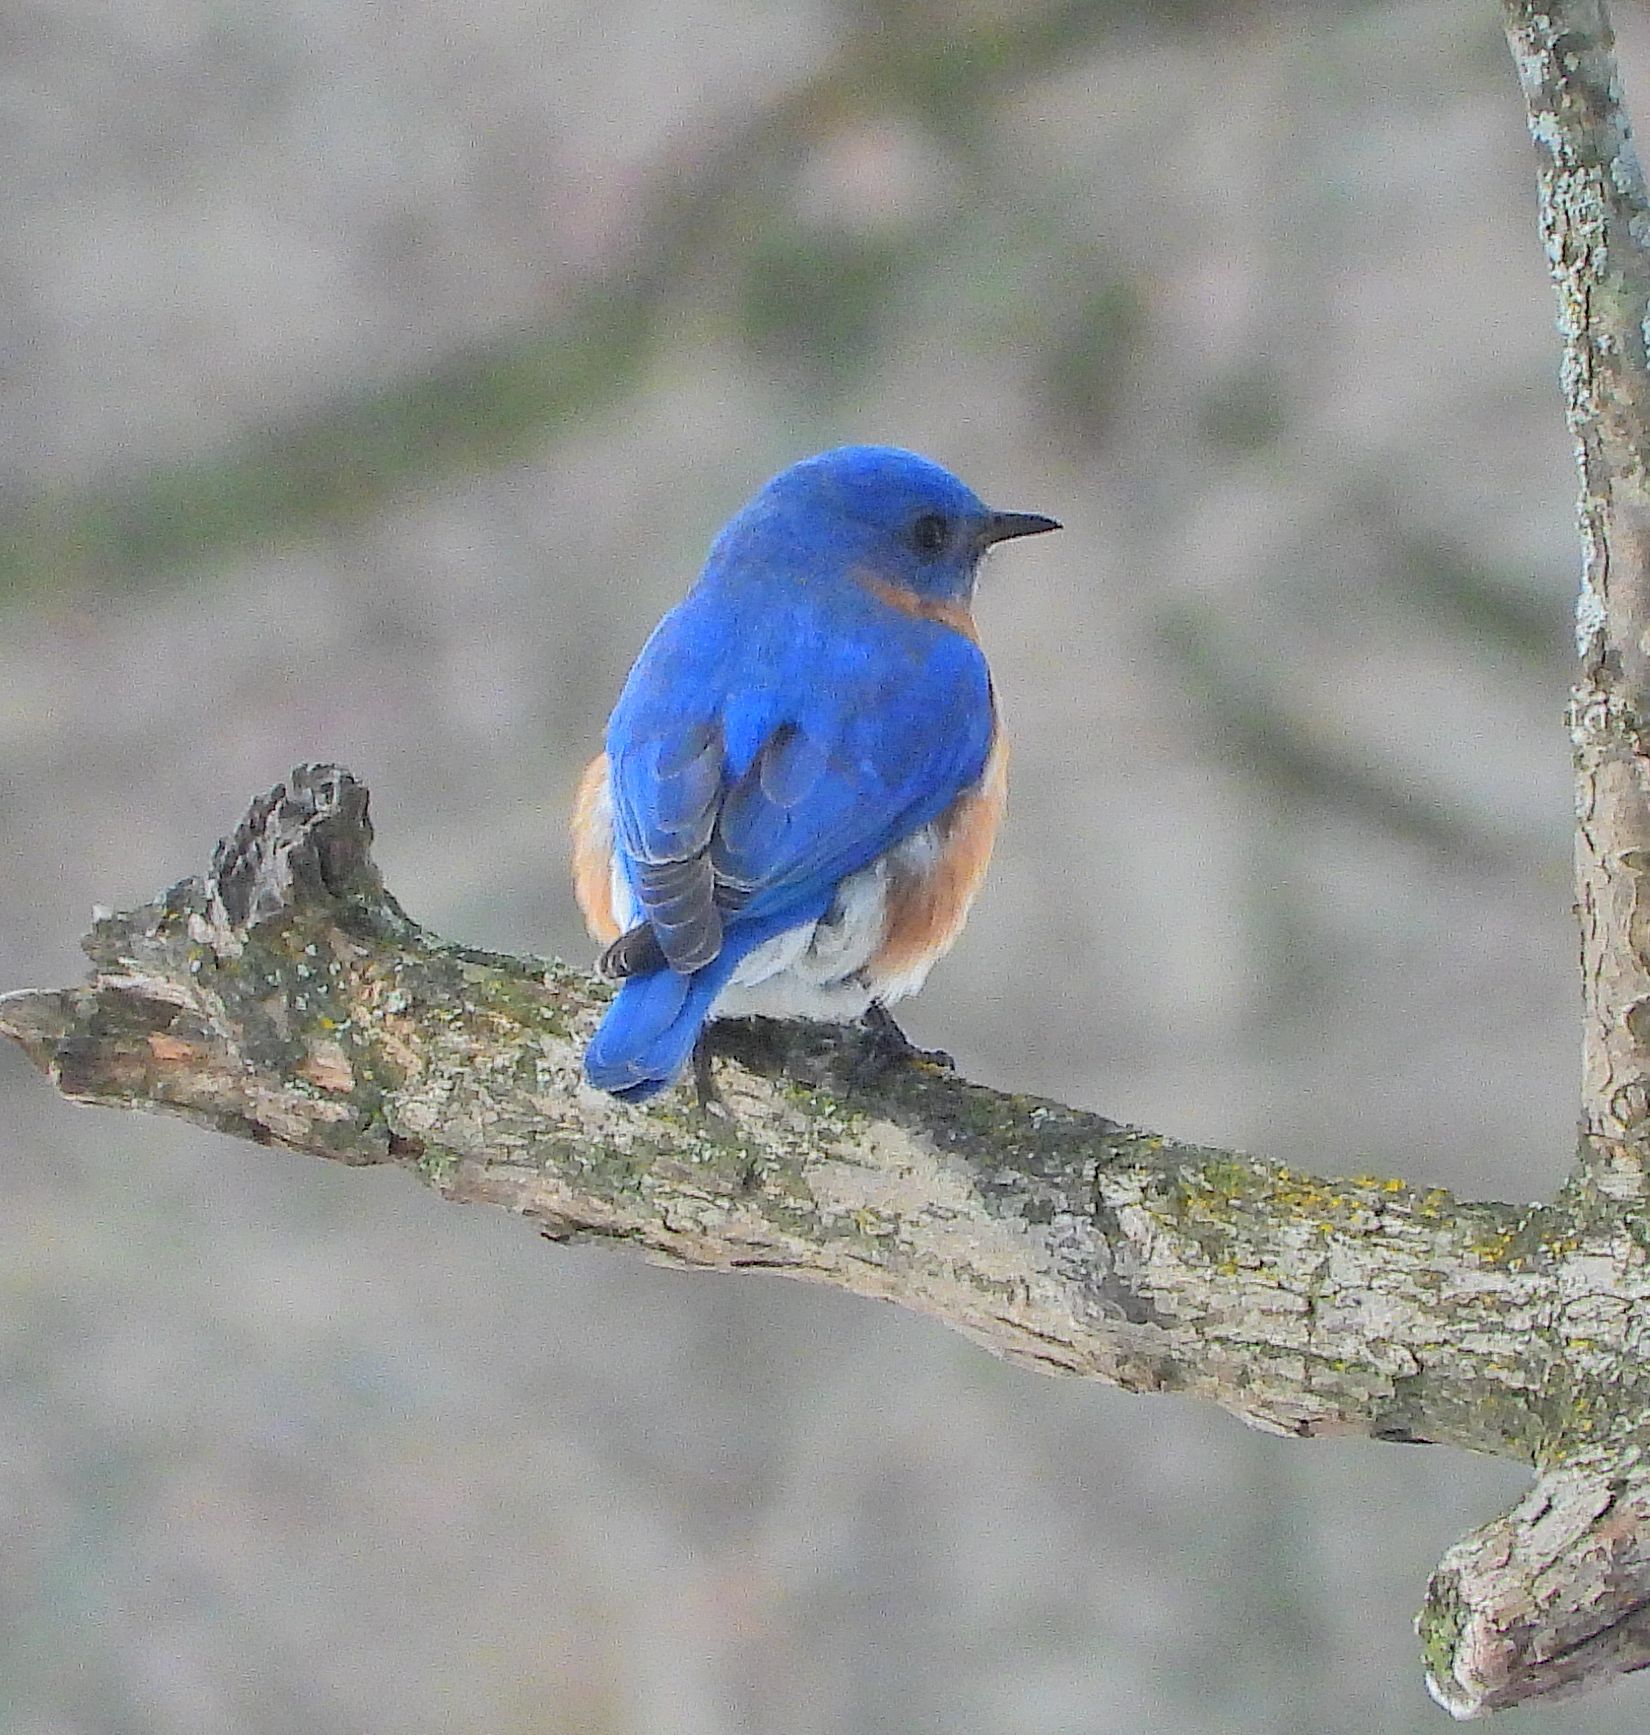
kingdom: Animalia
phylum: Chordata
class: Aves
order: Passeriformes
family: Turdidae
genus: Sialia
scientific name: Sialia sialis
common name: Eastern bluebird
